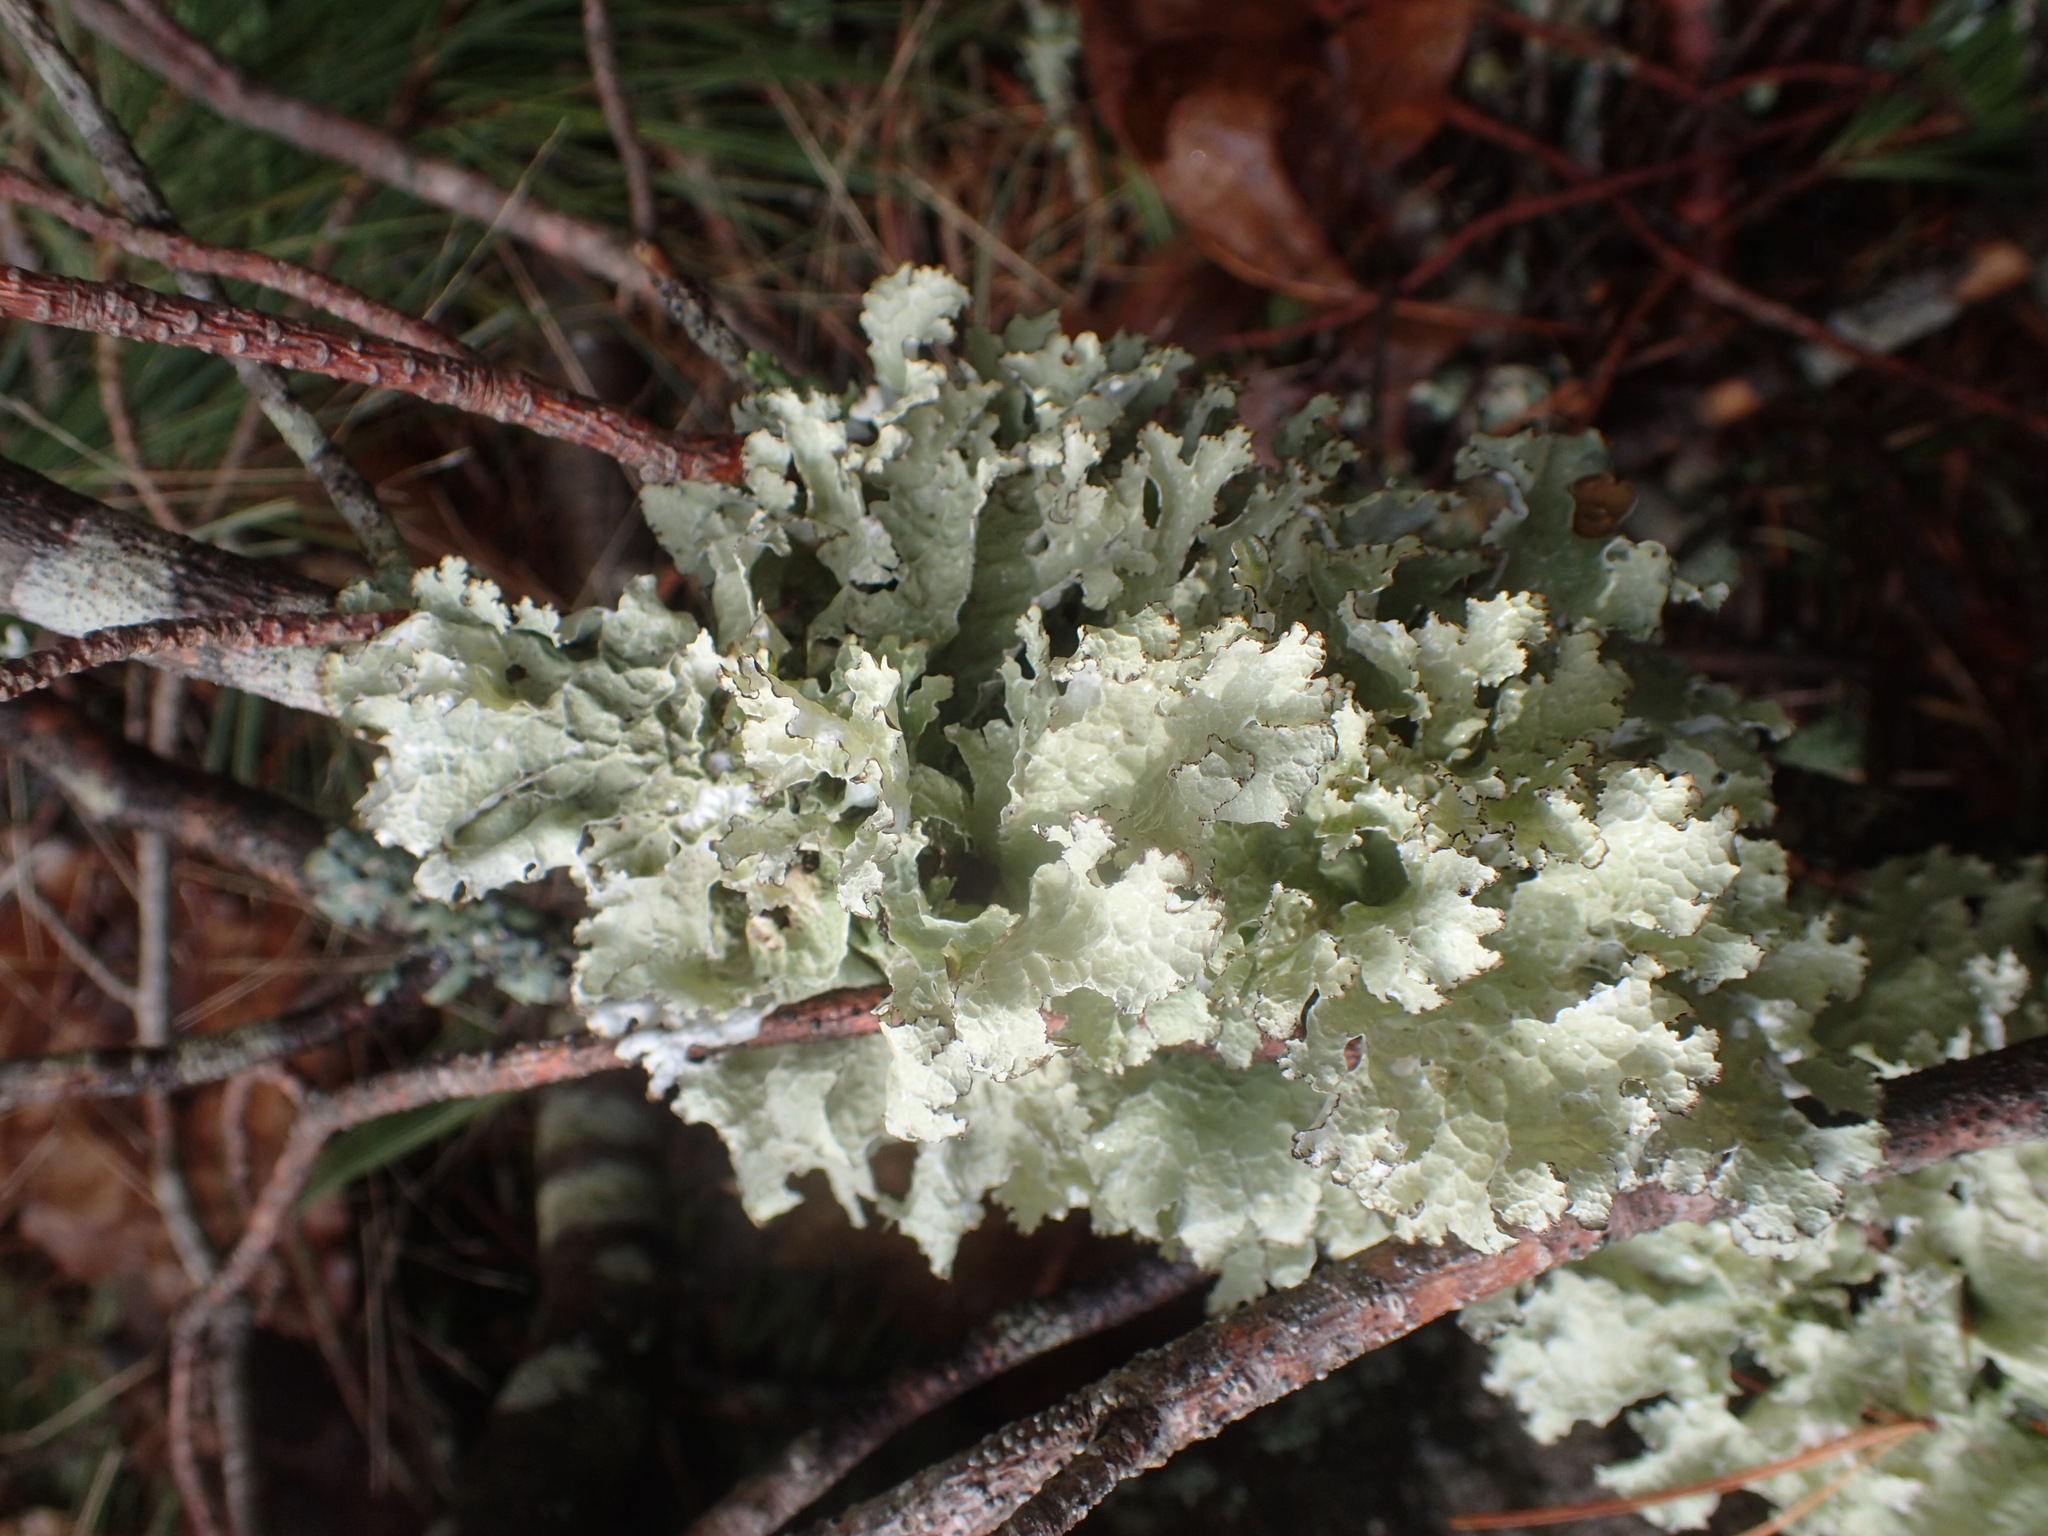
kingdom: Fungi
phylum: Ascomycota
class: Lecanoromycetes
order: Lecanorales
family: Parmeliaceae
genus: Platismatia
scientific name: Platismatia tuckermanii
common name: Crumpled rag lichen
